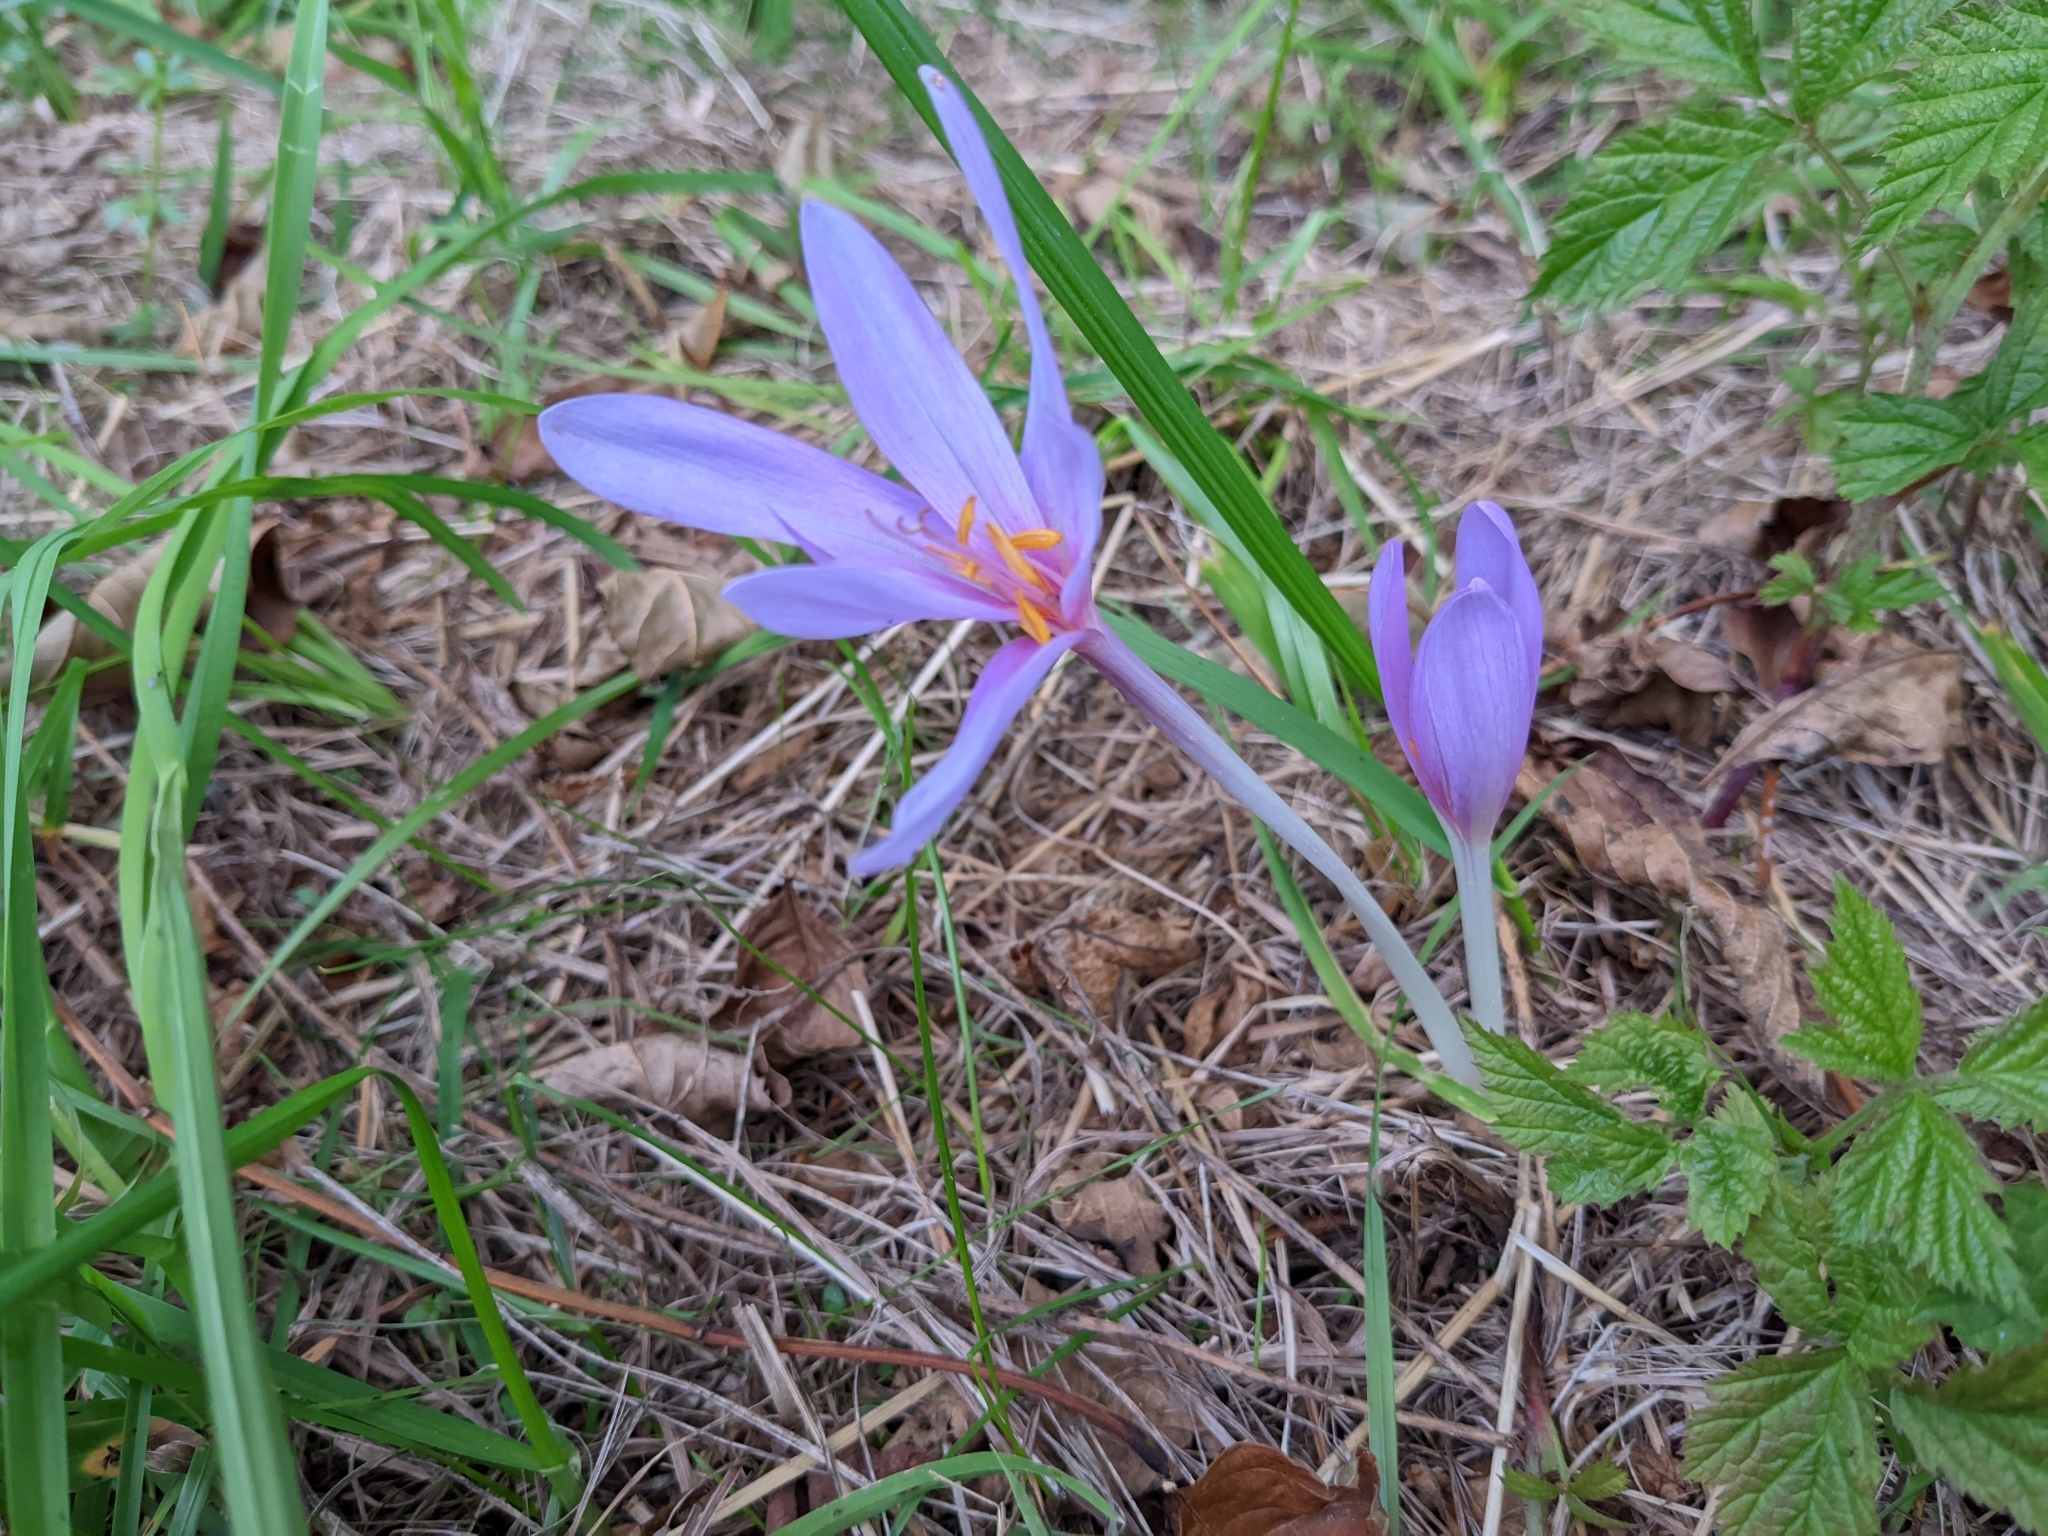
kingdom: Plantae
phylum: Tracheophyta
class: Liliopsida
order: Liliales
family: Colchicaceae
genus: Colchicum
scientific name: Colchicum autumnale
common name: Autumn crocus
